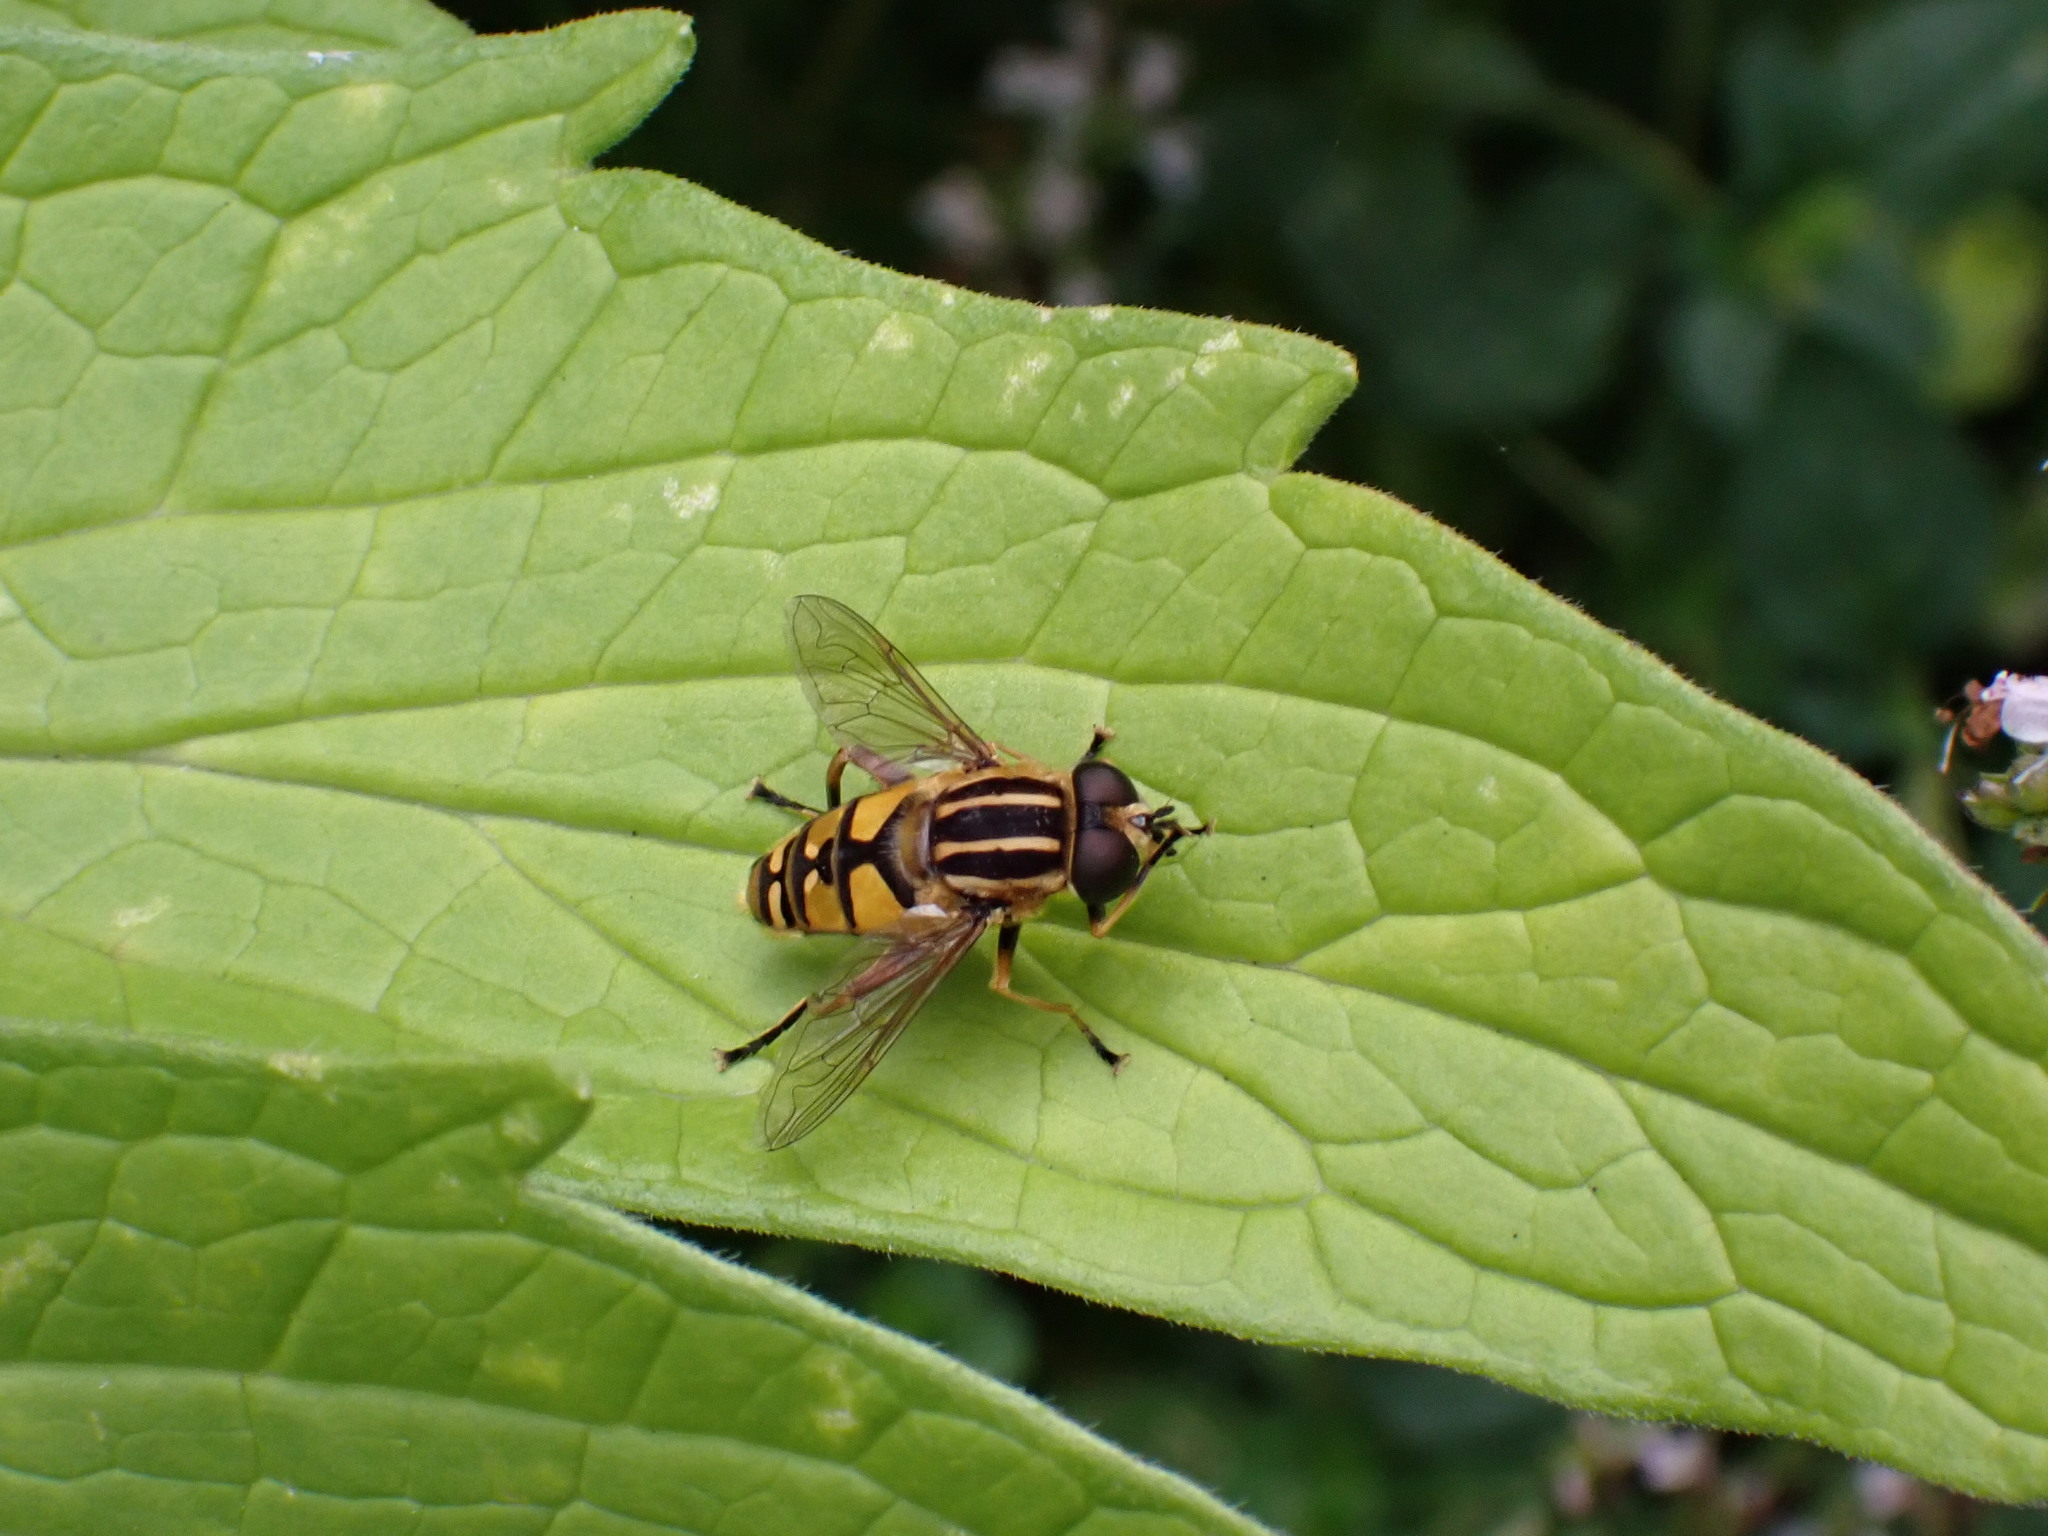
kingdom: Animalia
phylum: Arthropoda
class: Insecta
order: Diptera
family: Syrphidae
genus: Helophilus
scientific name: Helophilus pendulus
